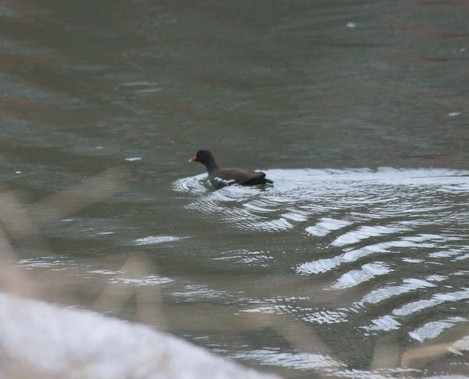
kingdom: Animalia
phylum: Chordata
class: Aves
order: Gruiformes
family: Rallidae
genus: Gallinula
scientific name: Gallinula chloropus
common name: Common moorhen
